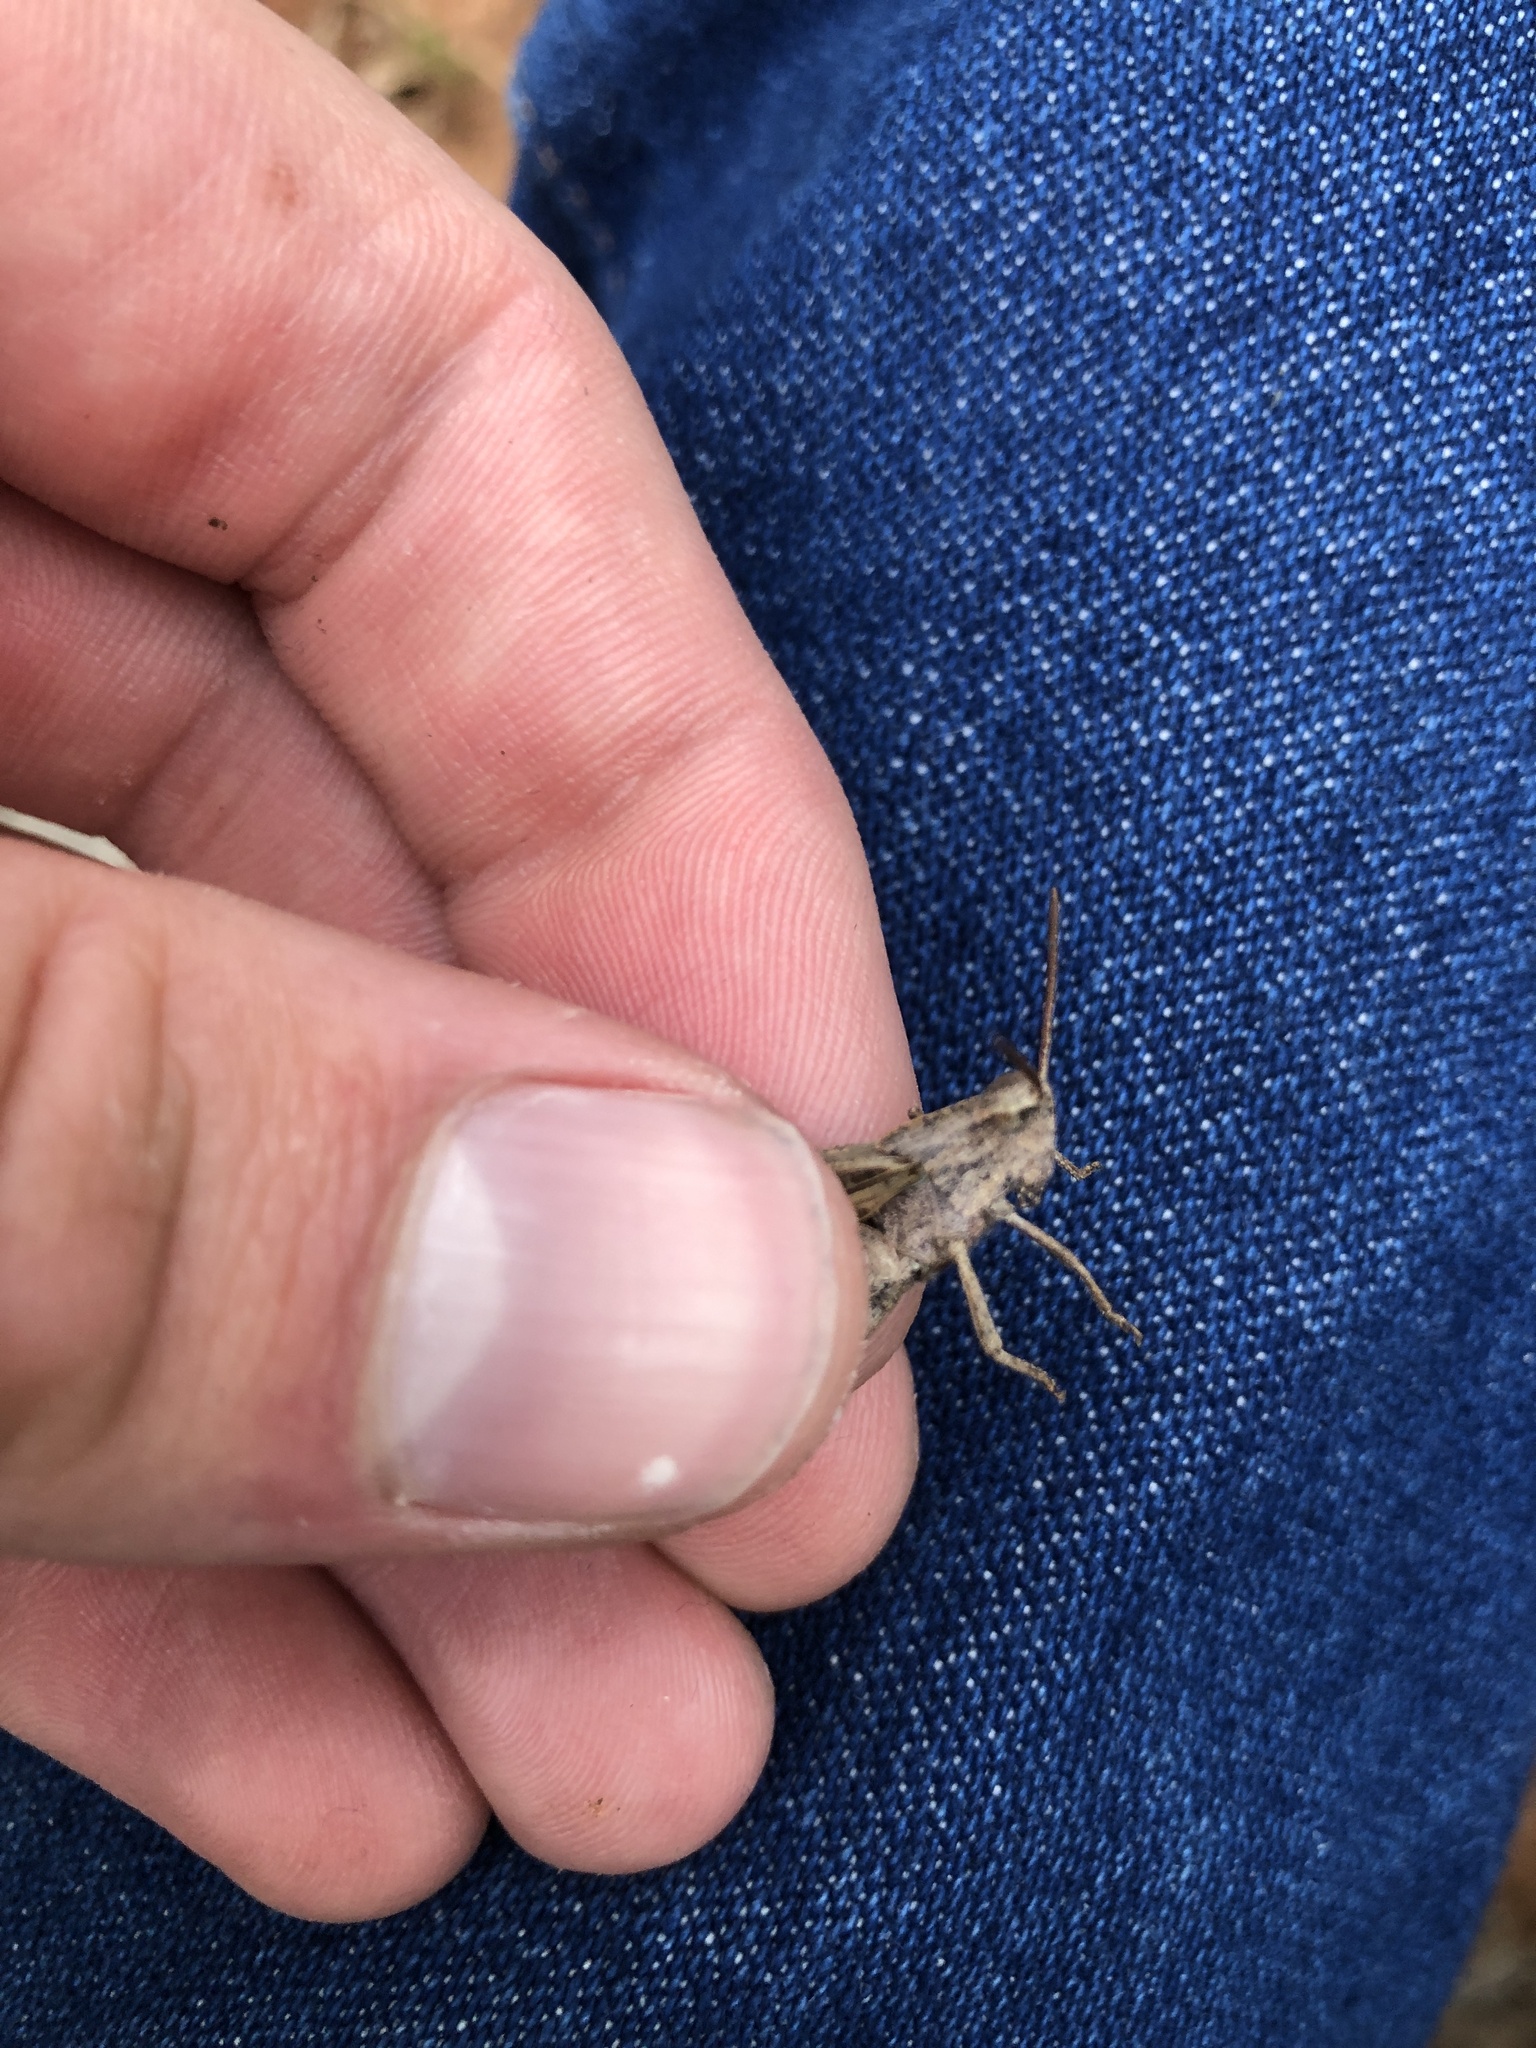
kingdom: Animalia
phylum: Arthropoda
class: Insecta
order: Orthoptera
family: Acrididae
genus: Chortophaga
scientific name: Chortophaga viridifasciata
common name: Green-striped grasshopper
